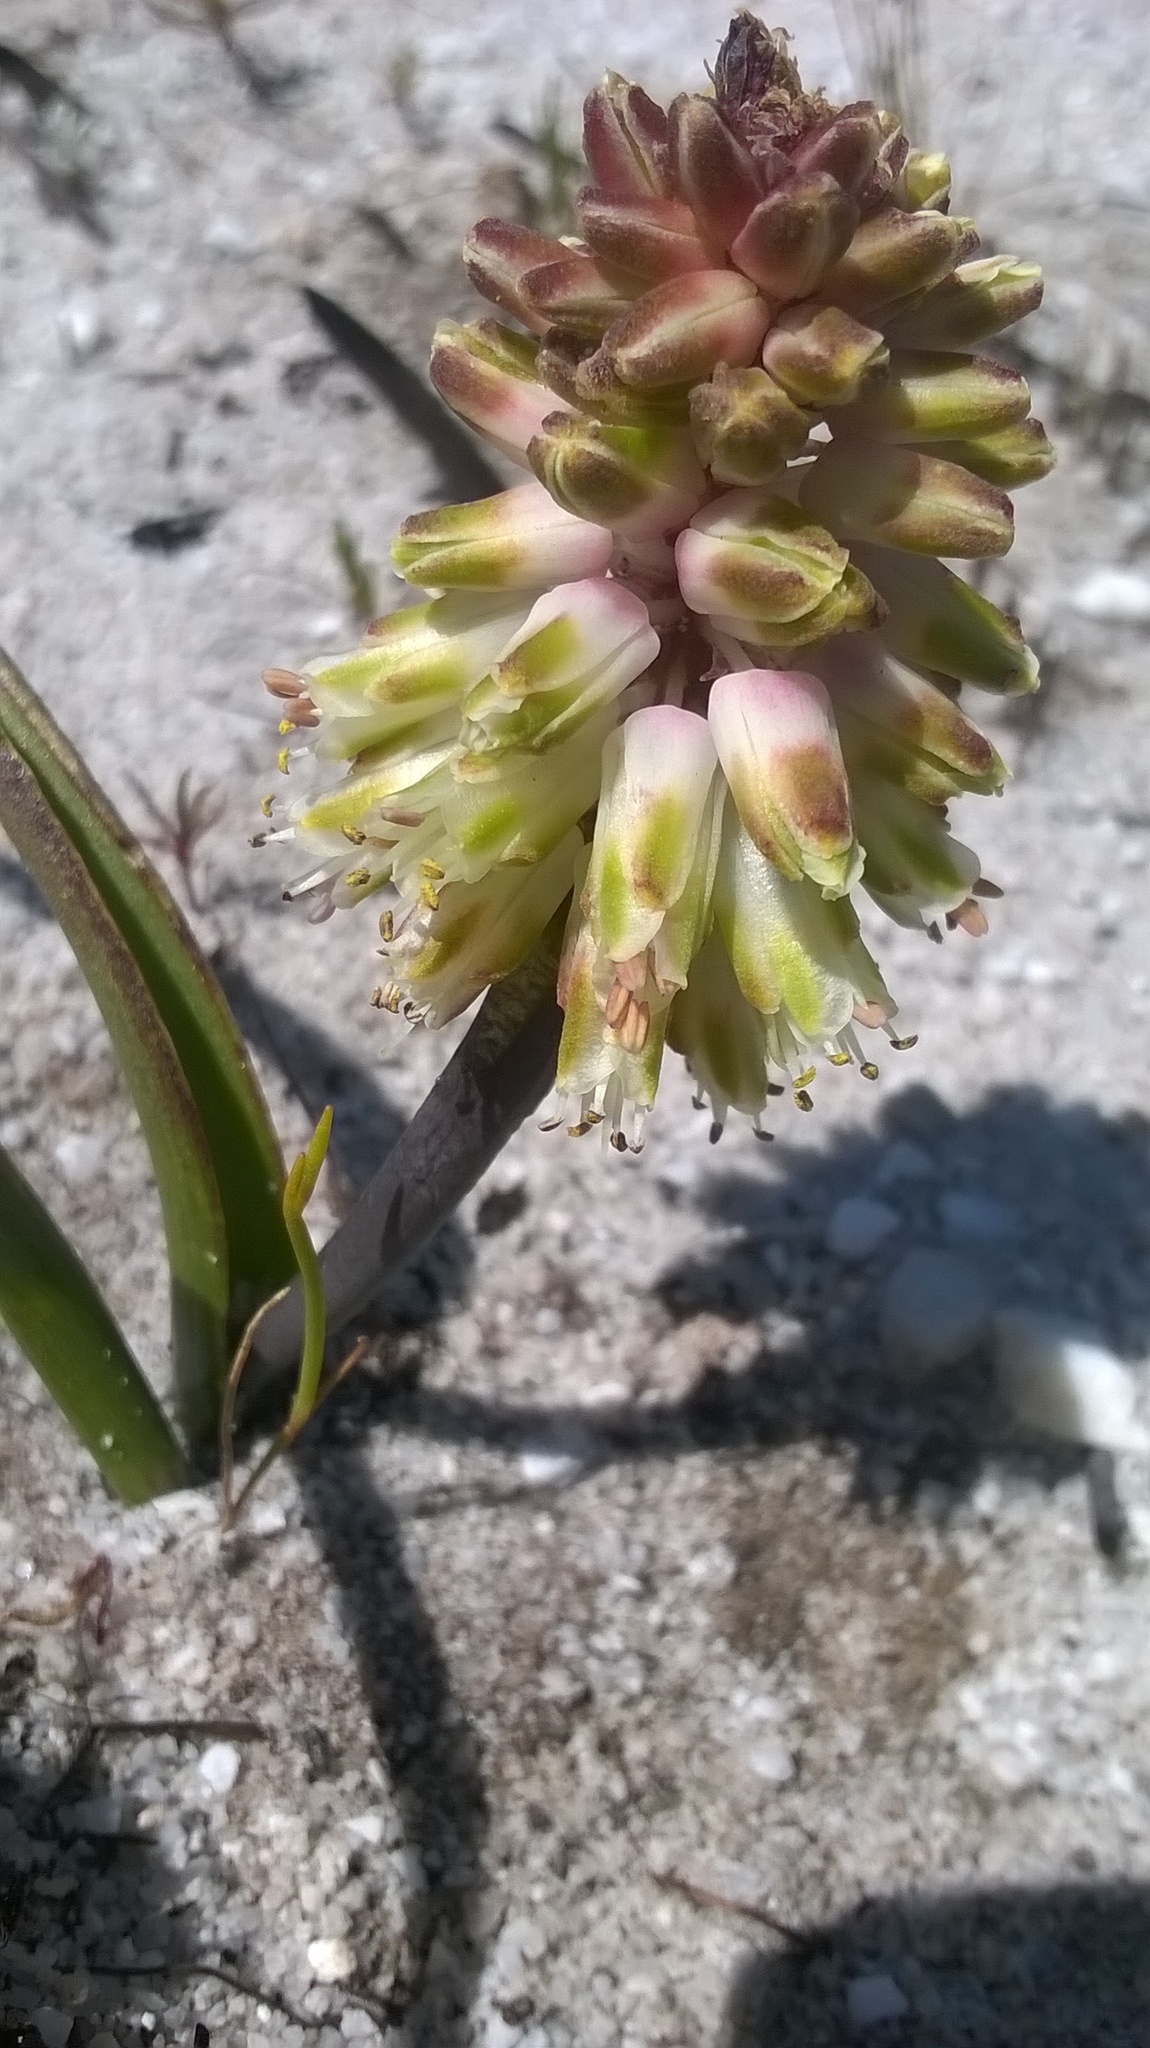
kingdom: Plantae
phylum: Tracheophyta
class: Liliopsida
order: Asparagales
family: Asparagaceae
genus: Lachenalia
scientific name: Lachenalia montana
